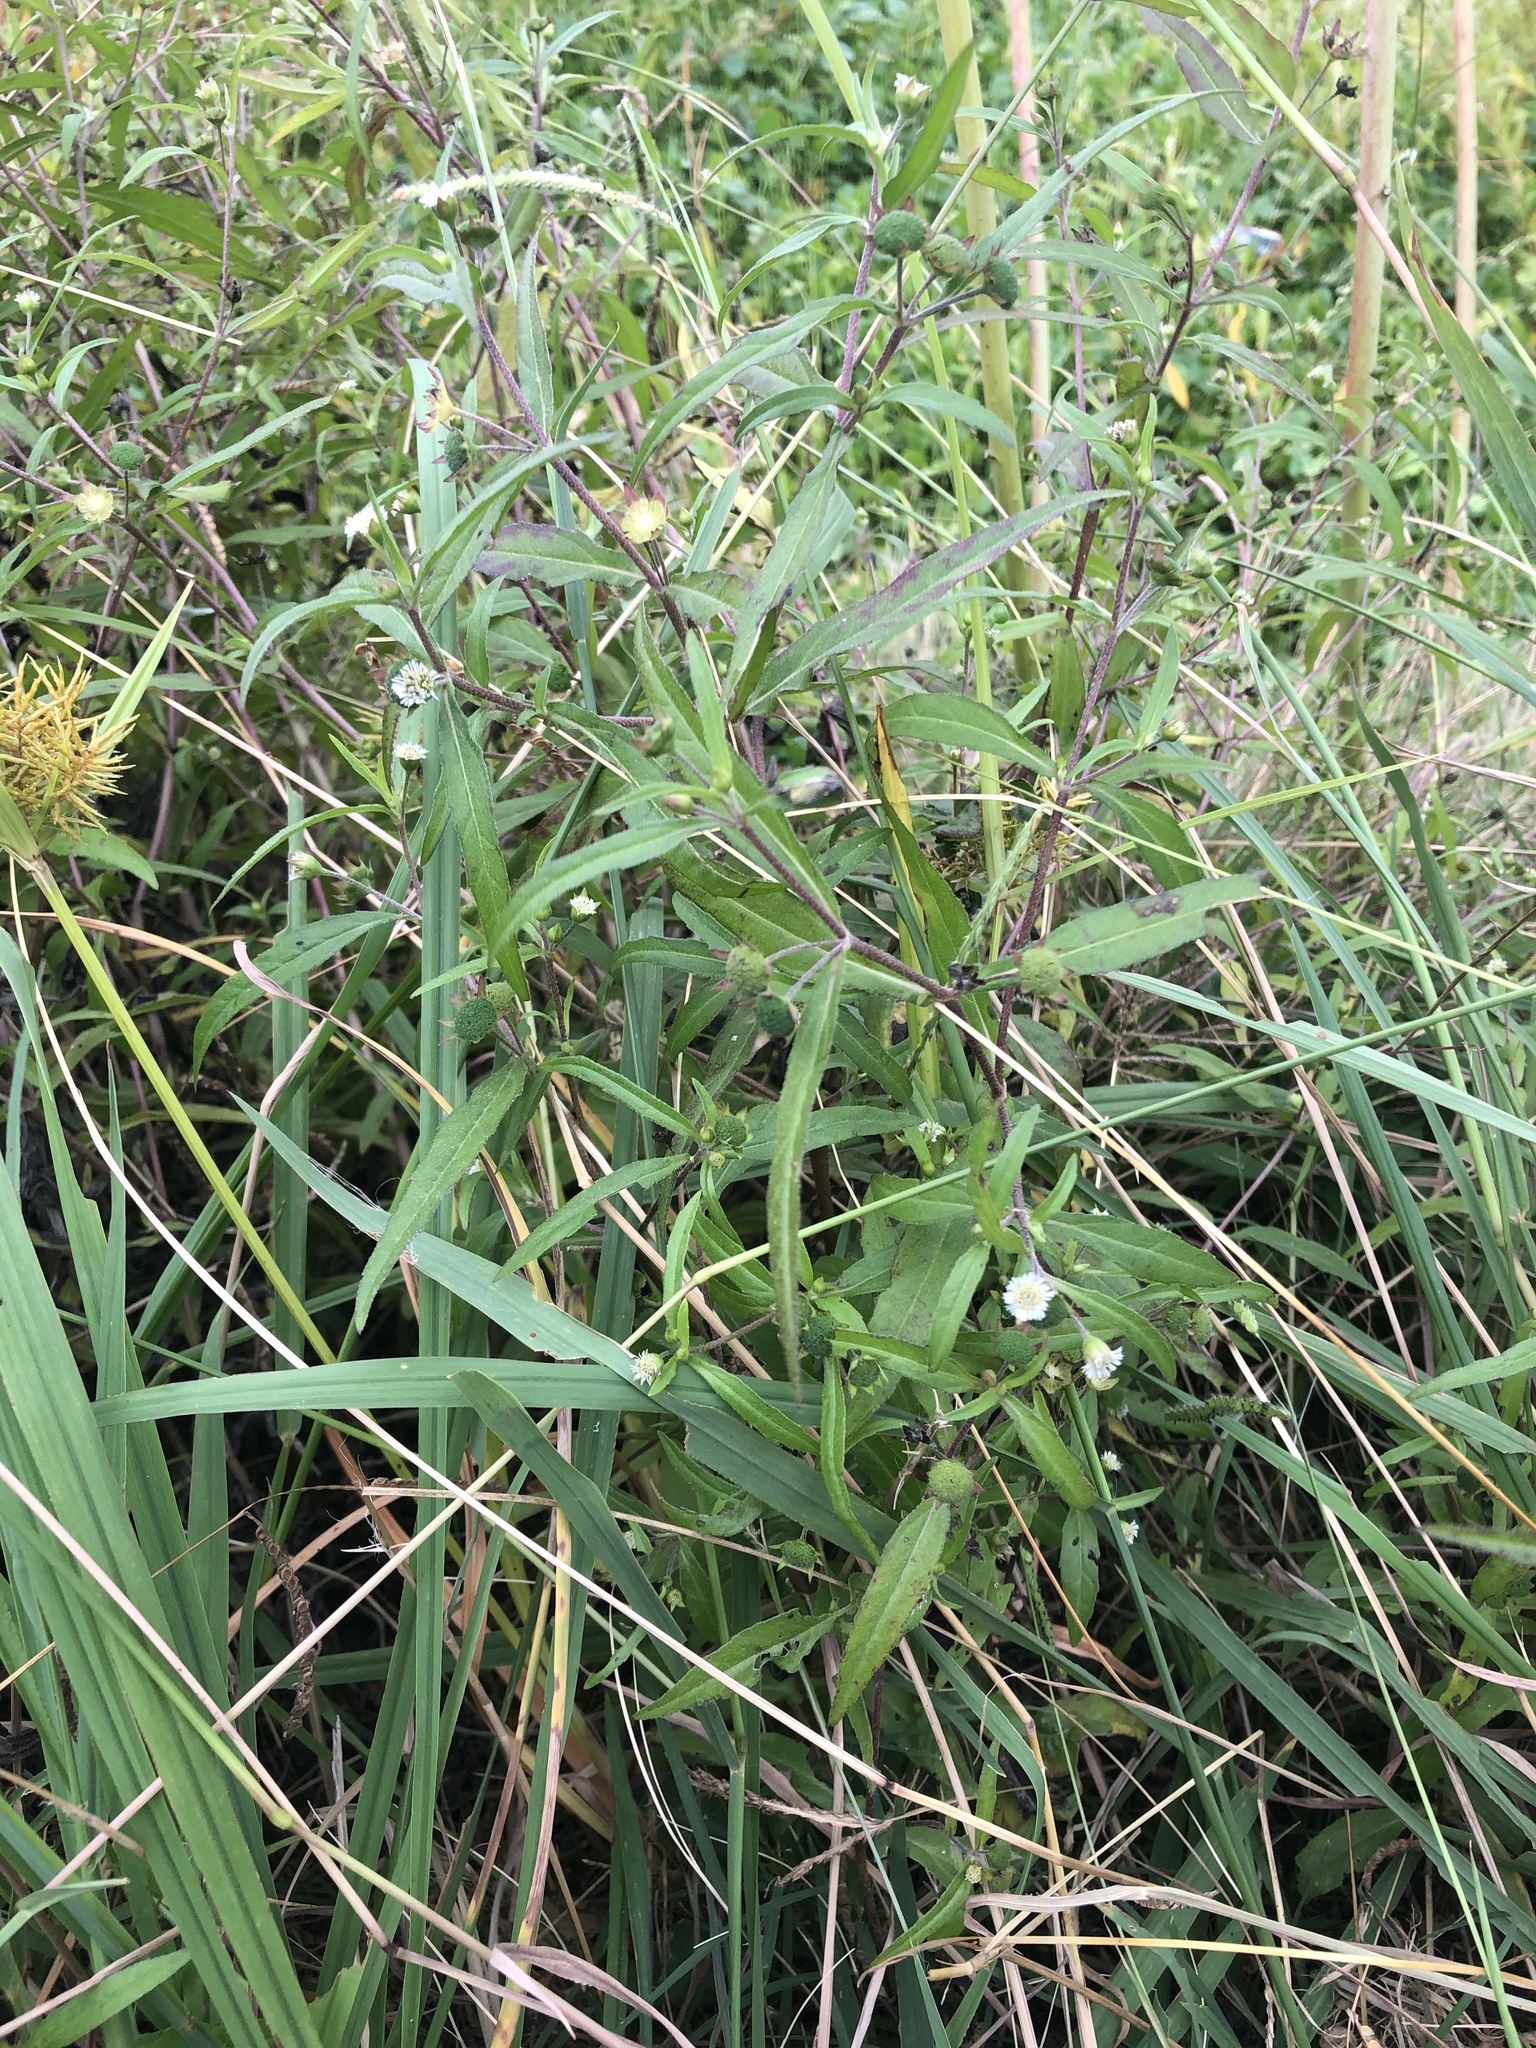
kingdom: Plantae
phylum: Tracheophyta
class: Magnoliopsida
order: Asterales
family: Asteraceae
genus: Eclipta
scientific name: Eclipta prostrata
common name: False daisy
